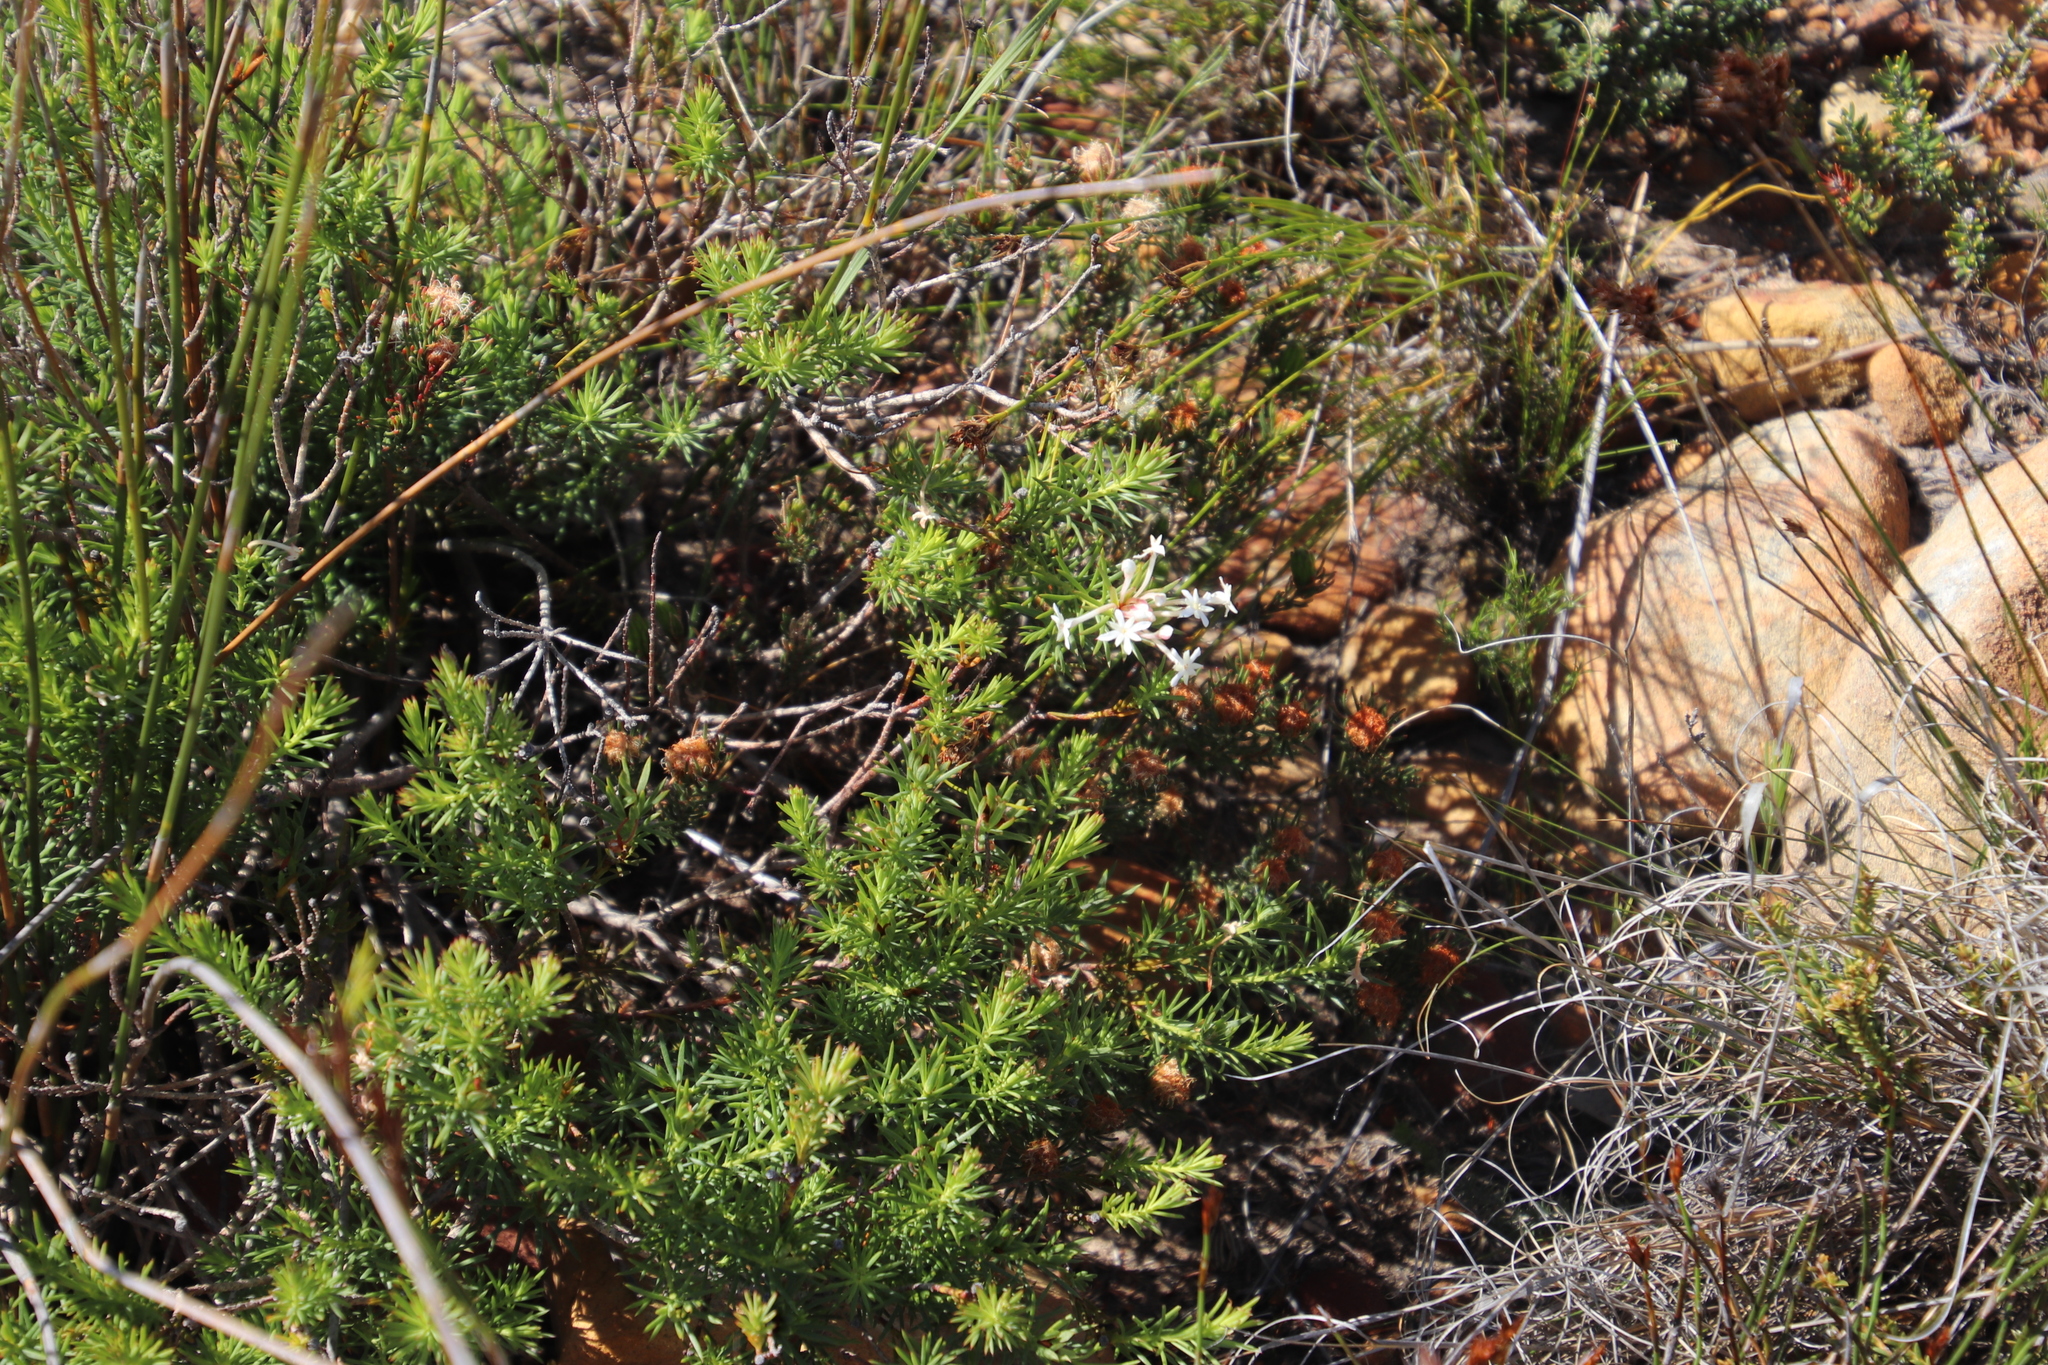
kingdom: Plantae
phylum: Tracheophyta
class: Magnoliopsida
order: Malvales
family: Thymelaeaceae
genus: Gnidia
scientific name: Gnidia pinifolia
